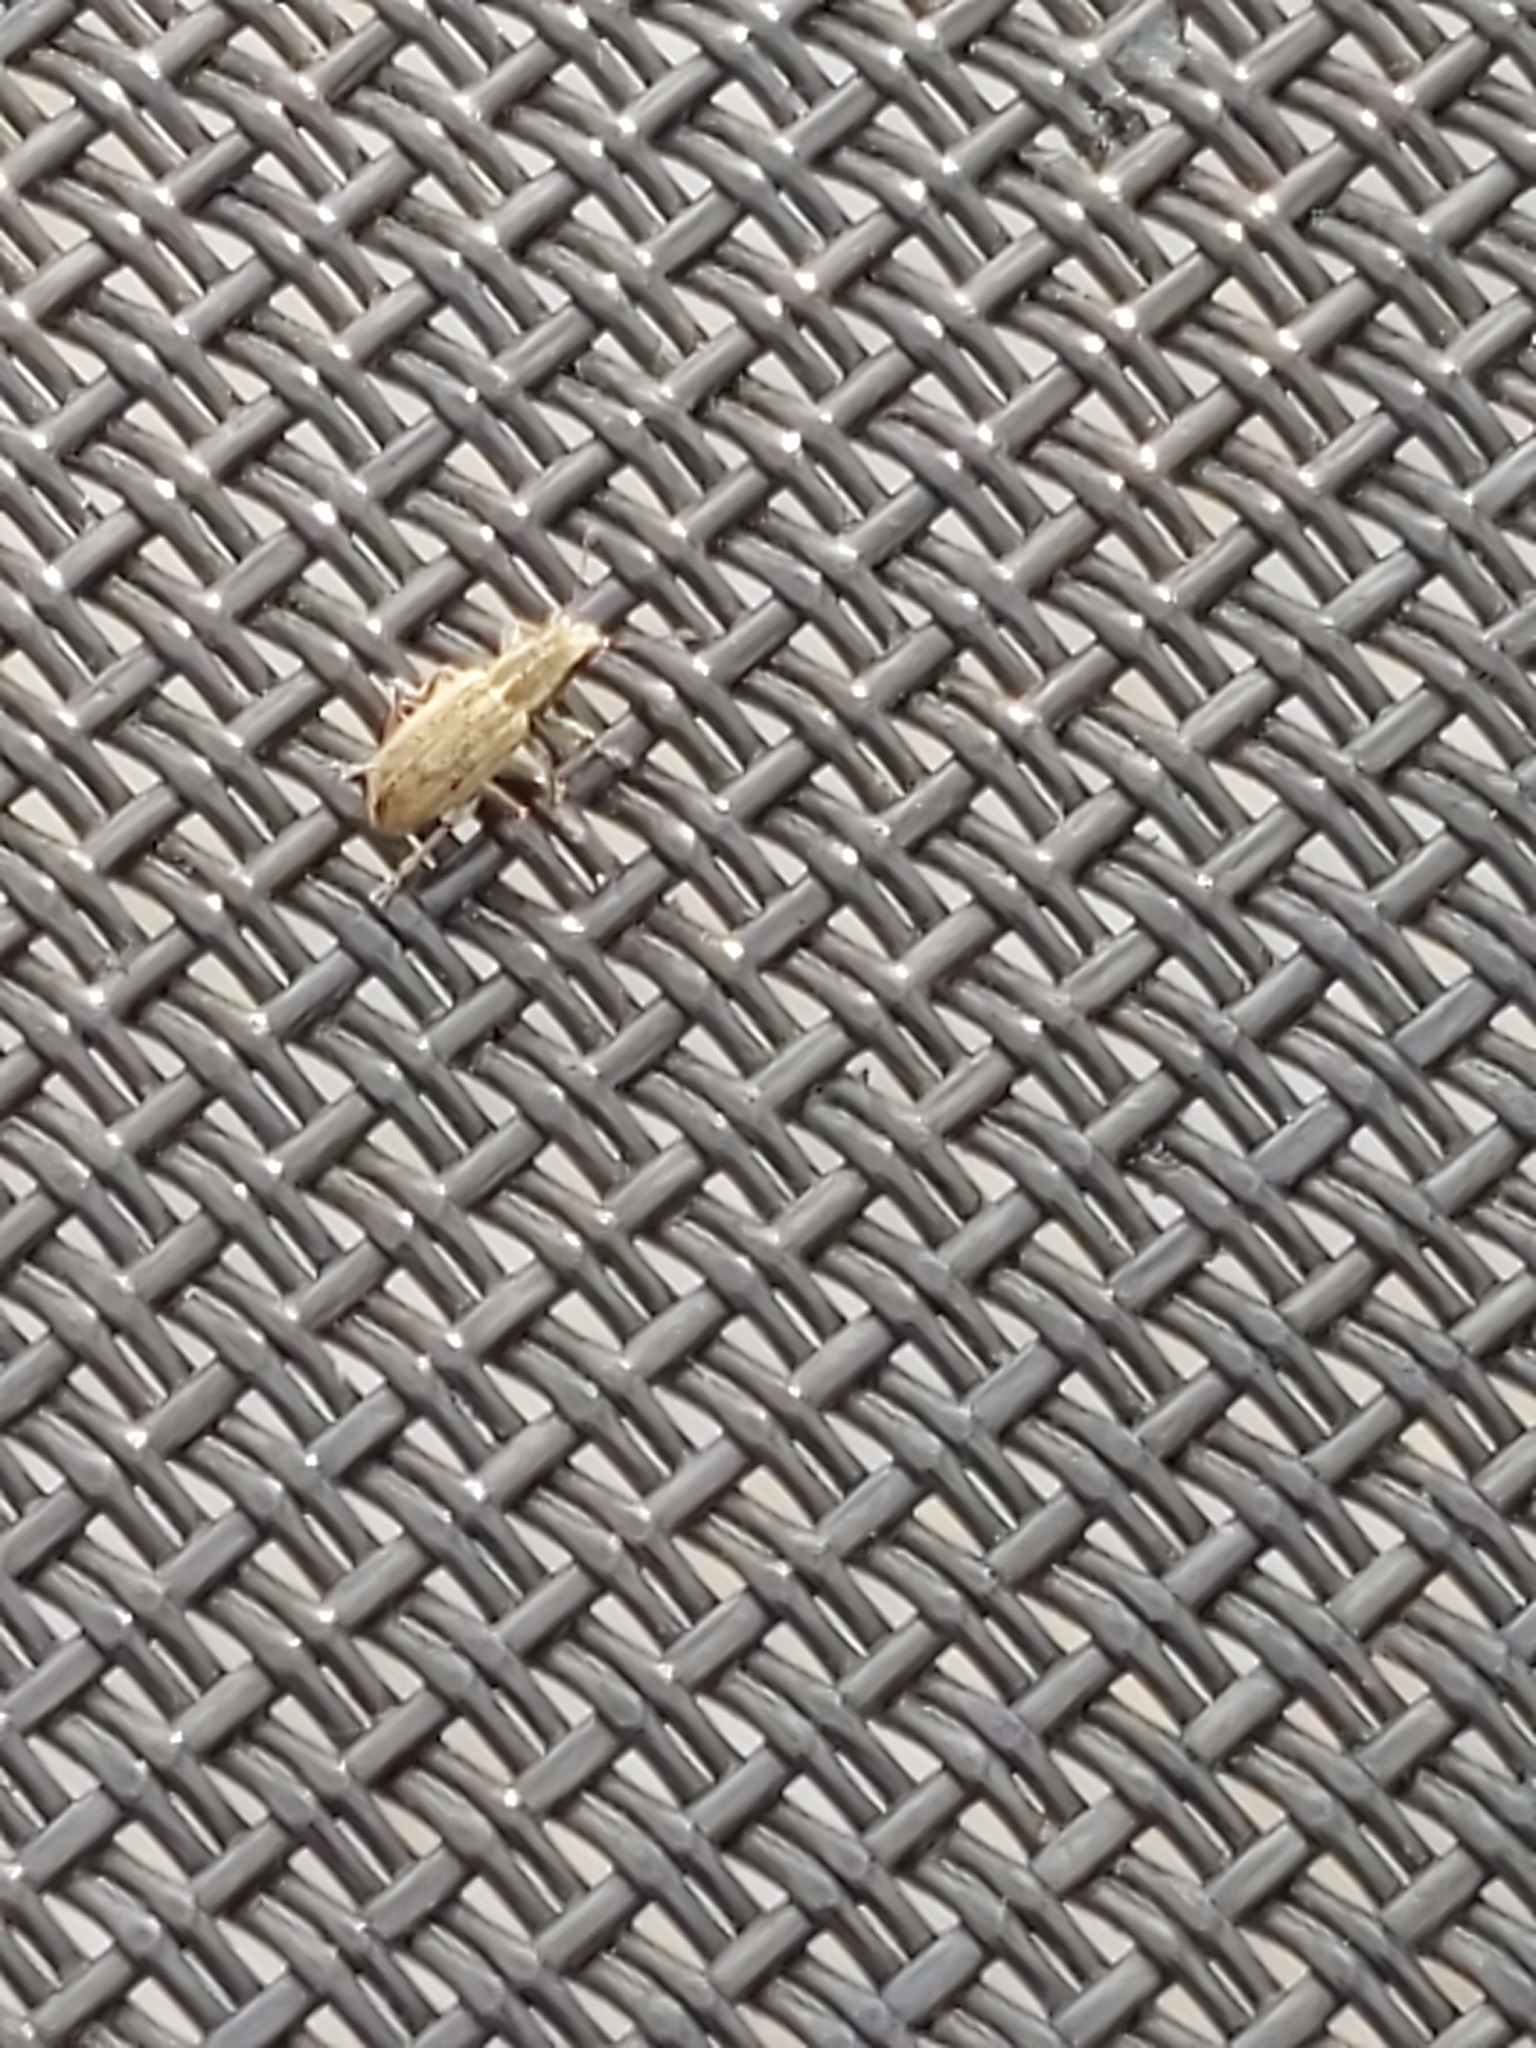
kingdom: Animalia
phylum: Arthropoda
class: Insecta
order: Coleoptera
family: Curculionidae
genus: Sitona
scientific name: Sitona lineatus
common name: Weevil
